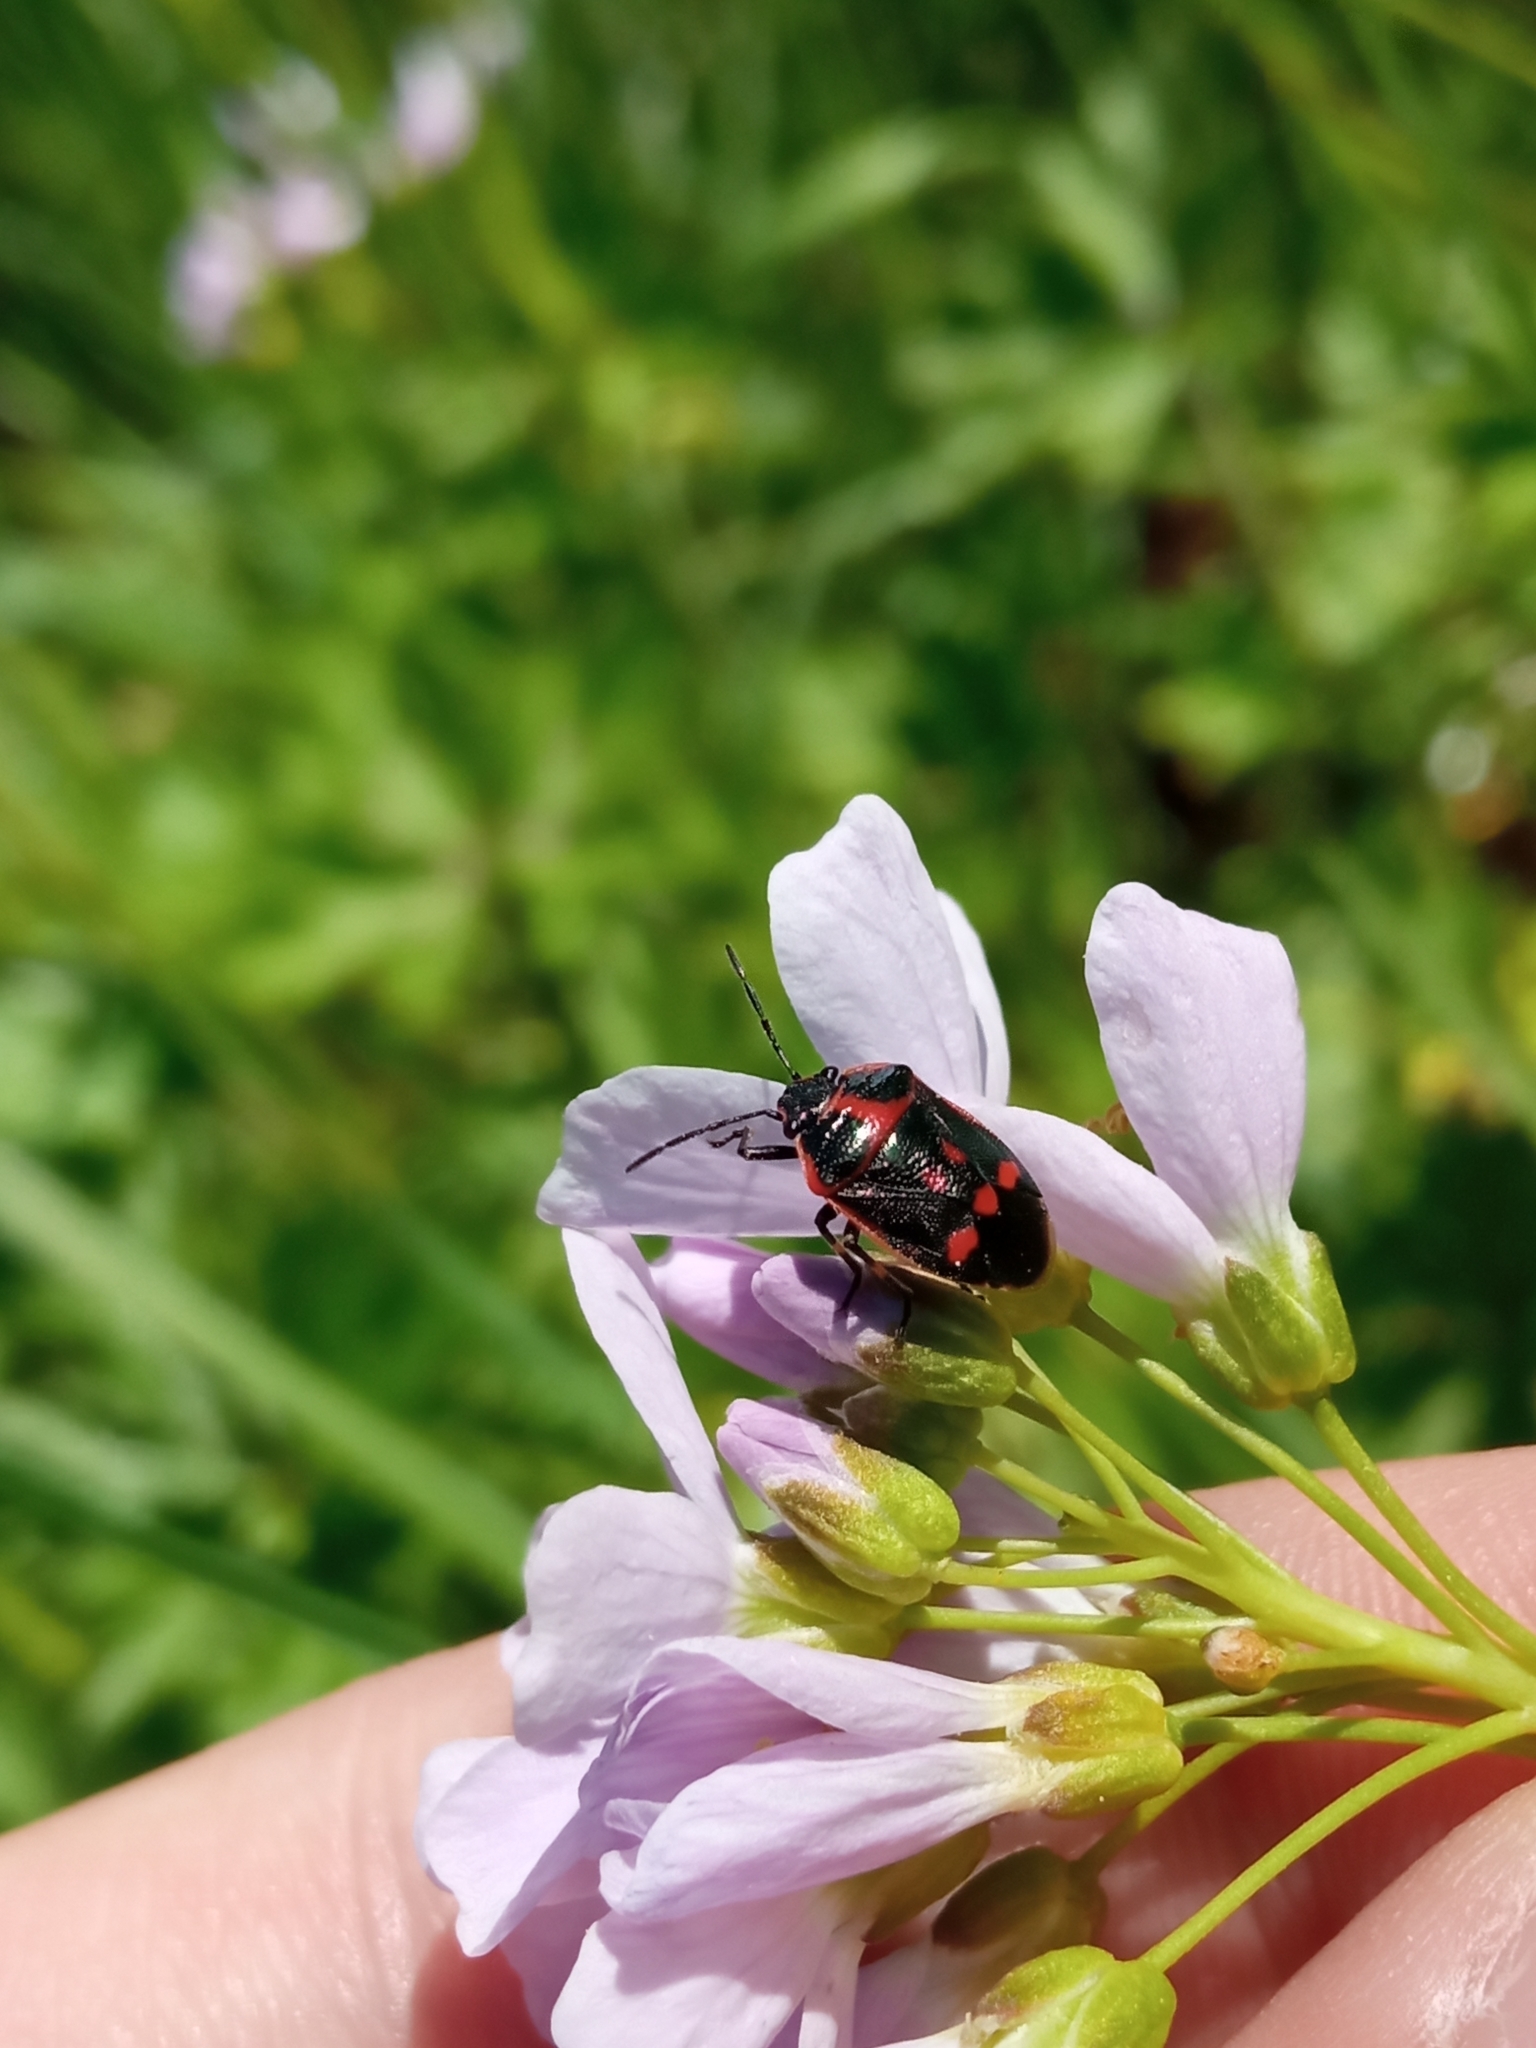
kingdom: Animalia
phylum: Arthropoda
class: Insecta
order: Hemiptera
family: Pentatomidae
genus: Eurydema
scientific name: Eurydema oleracea
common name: Cabbage bug
